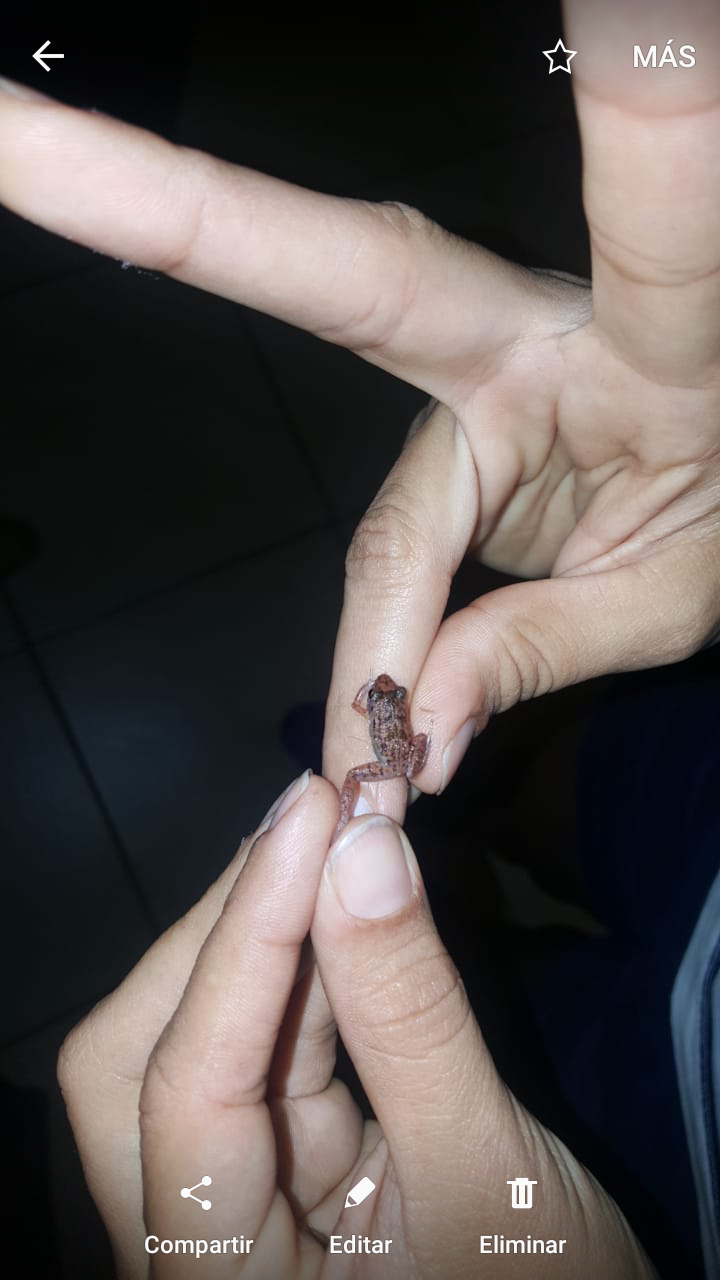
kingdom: Animalia
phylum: Chordata
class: Amphibia
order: Anura
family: Eleutherodactylidae
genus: Eleutherodactylus
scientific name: Eleutherodactylus planirostris
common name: Greenhouse frog
